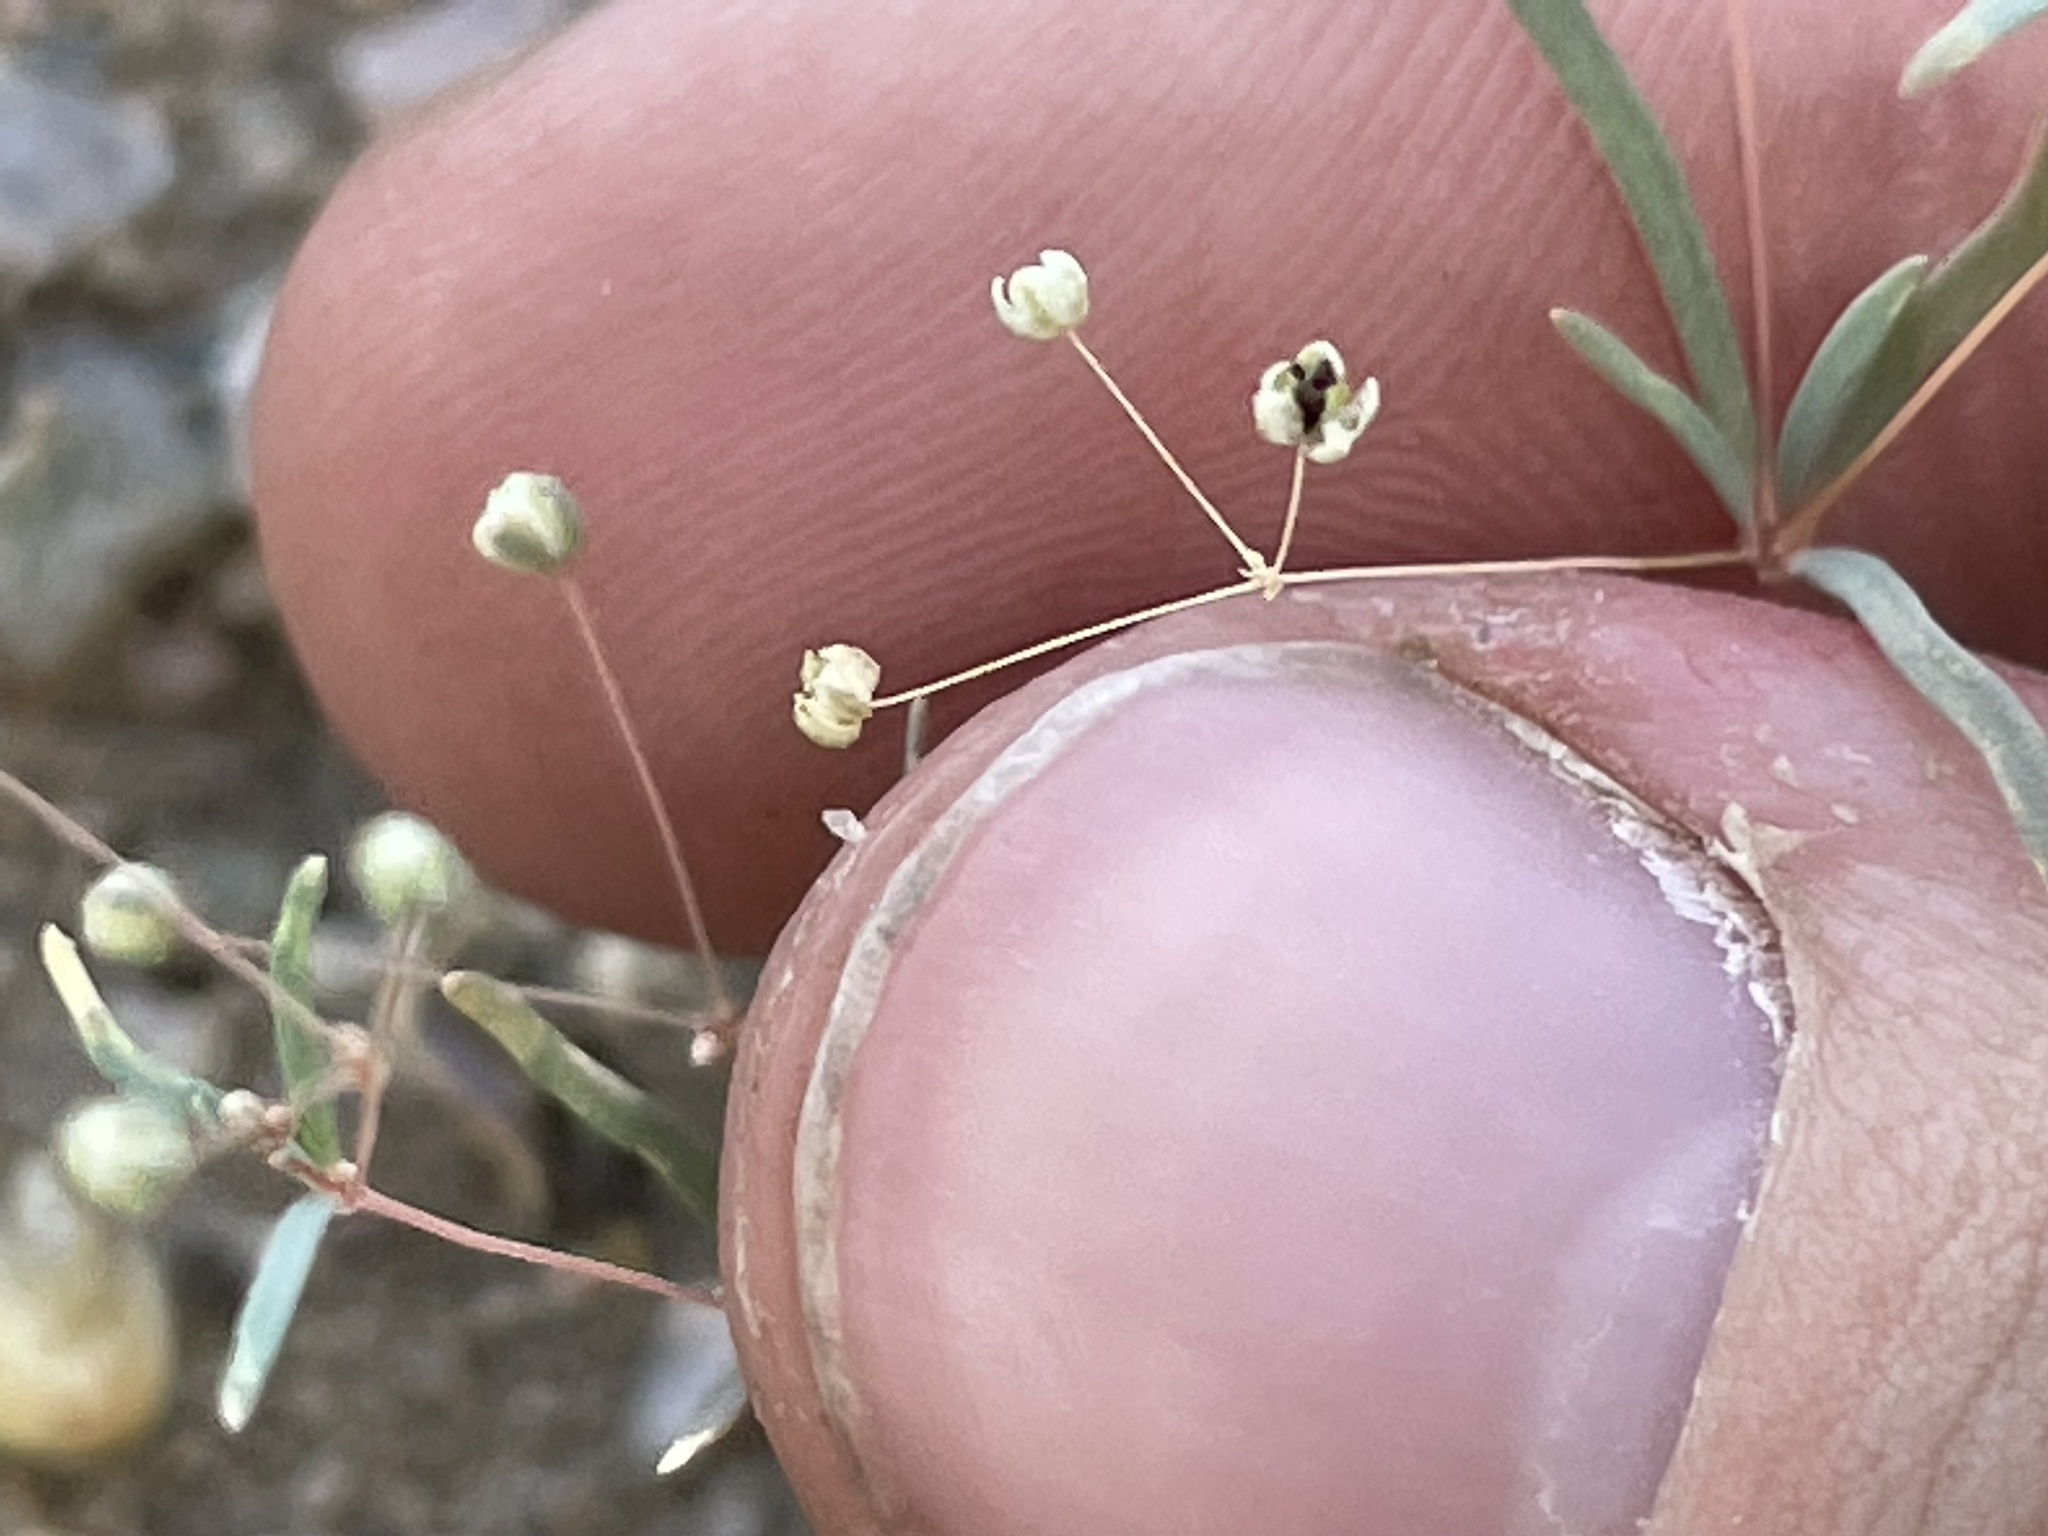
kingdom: Plantae
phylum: Tracheophyta
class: Magnoliopsida
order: Caryophyllales
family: Molluginaceae
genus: Hypertelis
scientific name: Hypertelis umbellata
